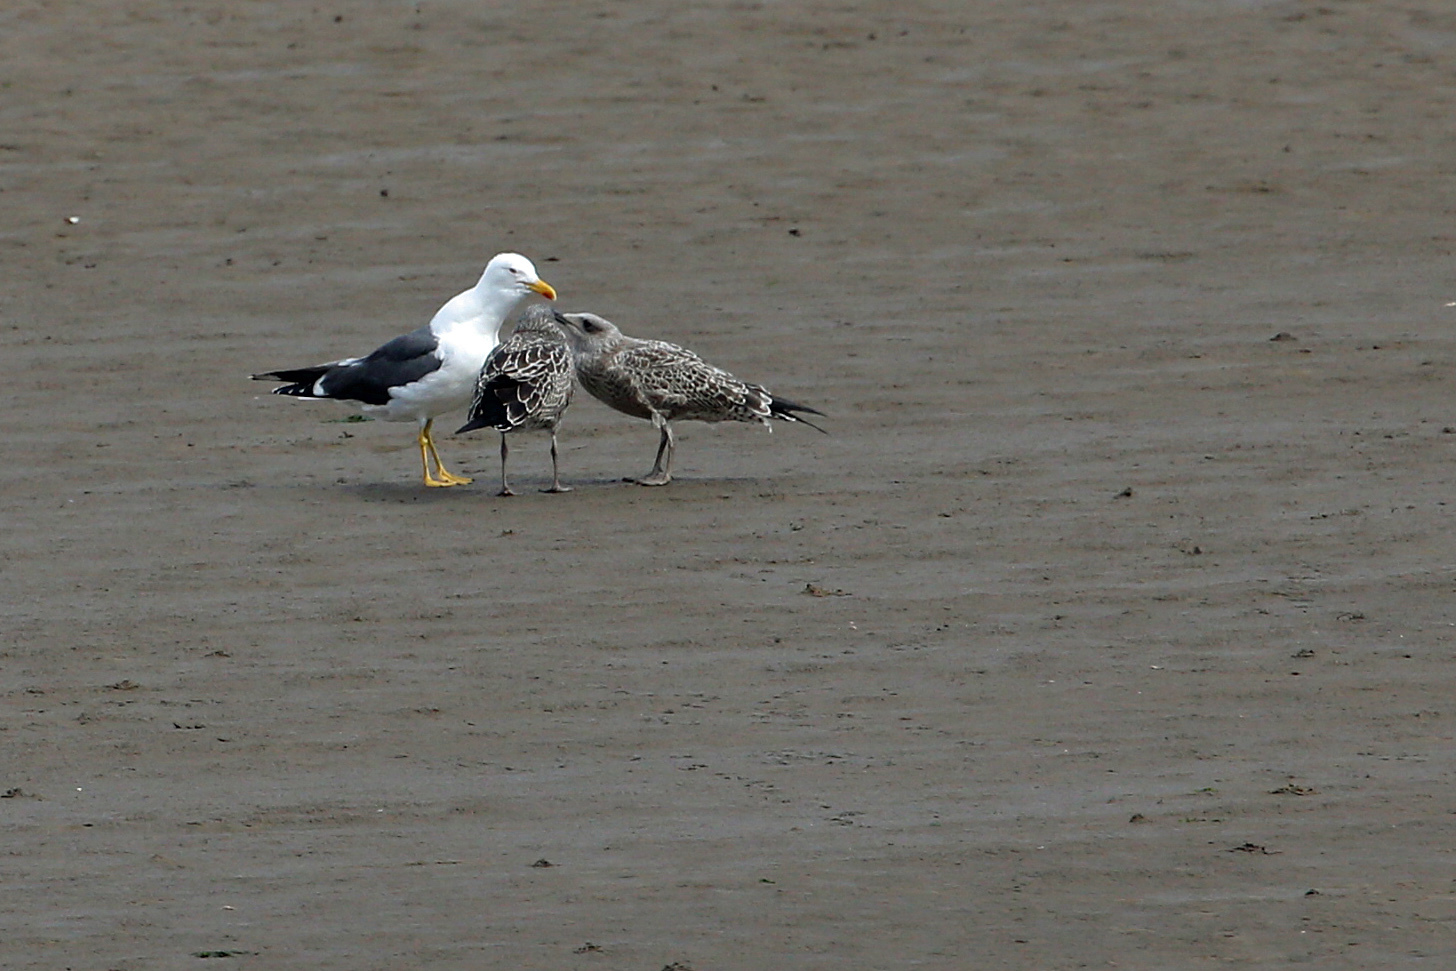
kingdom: Animalia
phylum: Chordata
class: Aves
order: Charadriiformes
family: Laridae
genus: Larus
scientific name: Larus fuscus
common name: Lesser black-backed gull
